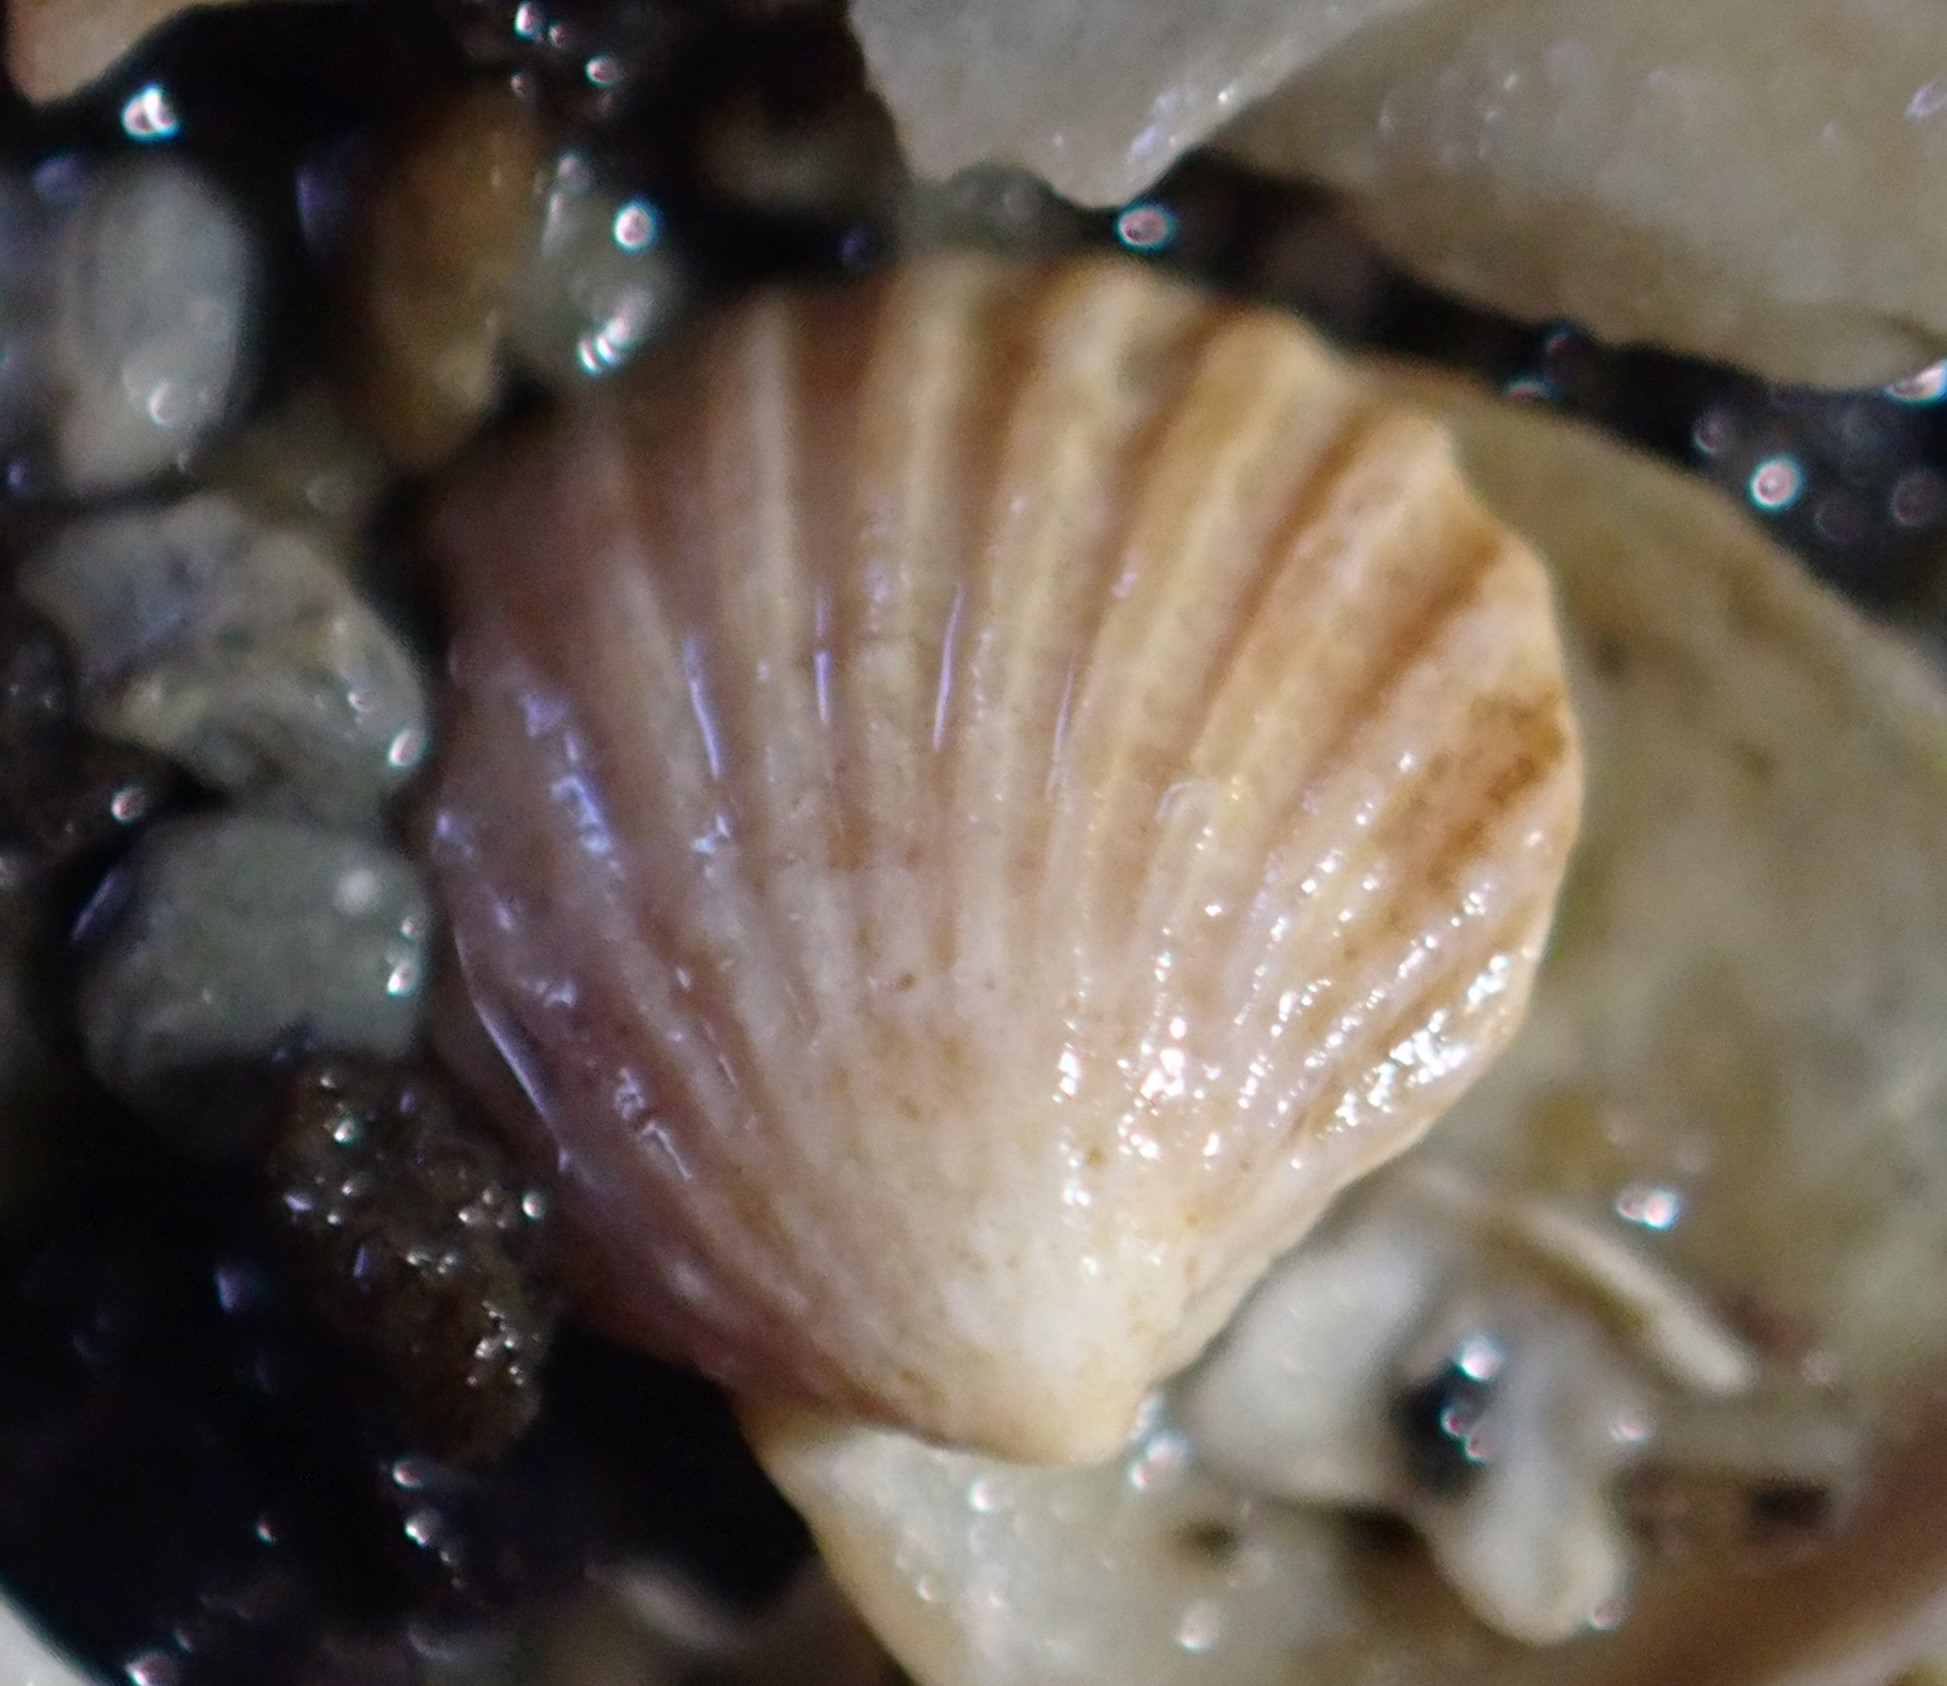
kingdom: Animalia
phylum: Mollusca
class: Bivalvia
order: Carditida
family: Carditidae
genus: Pleuromeris
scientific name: Pleuromeris zelandica
